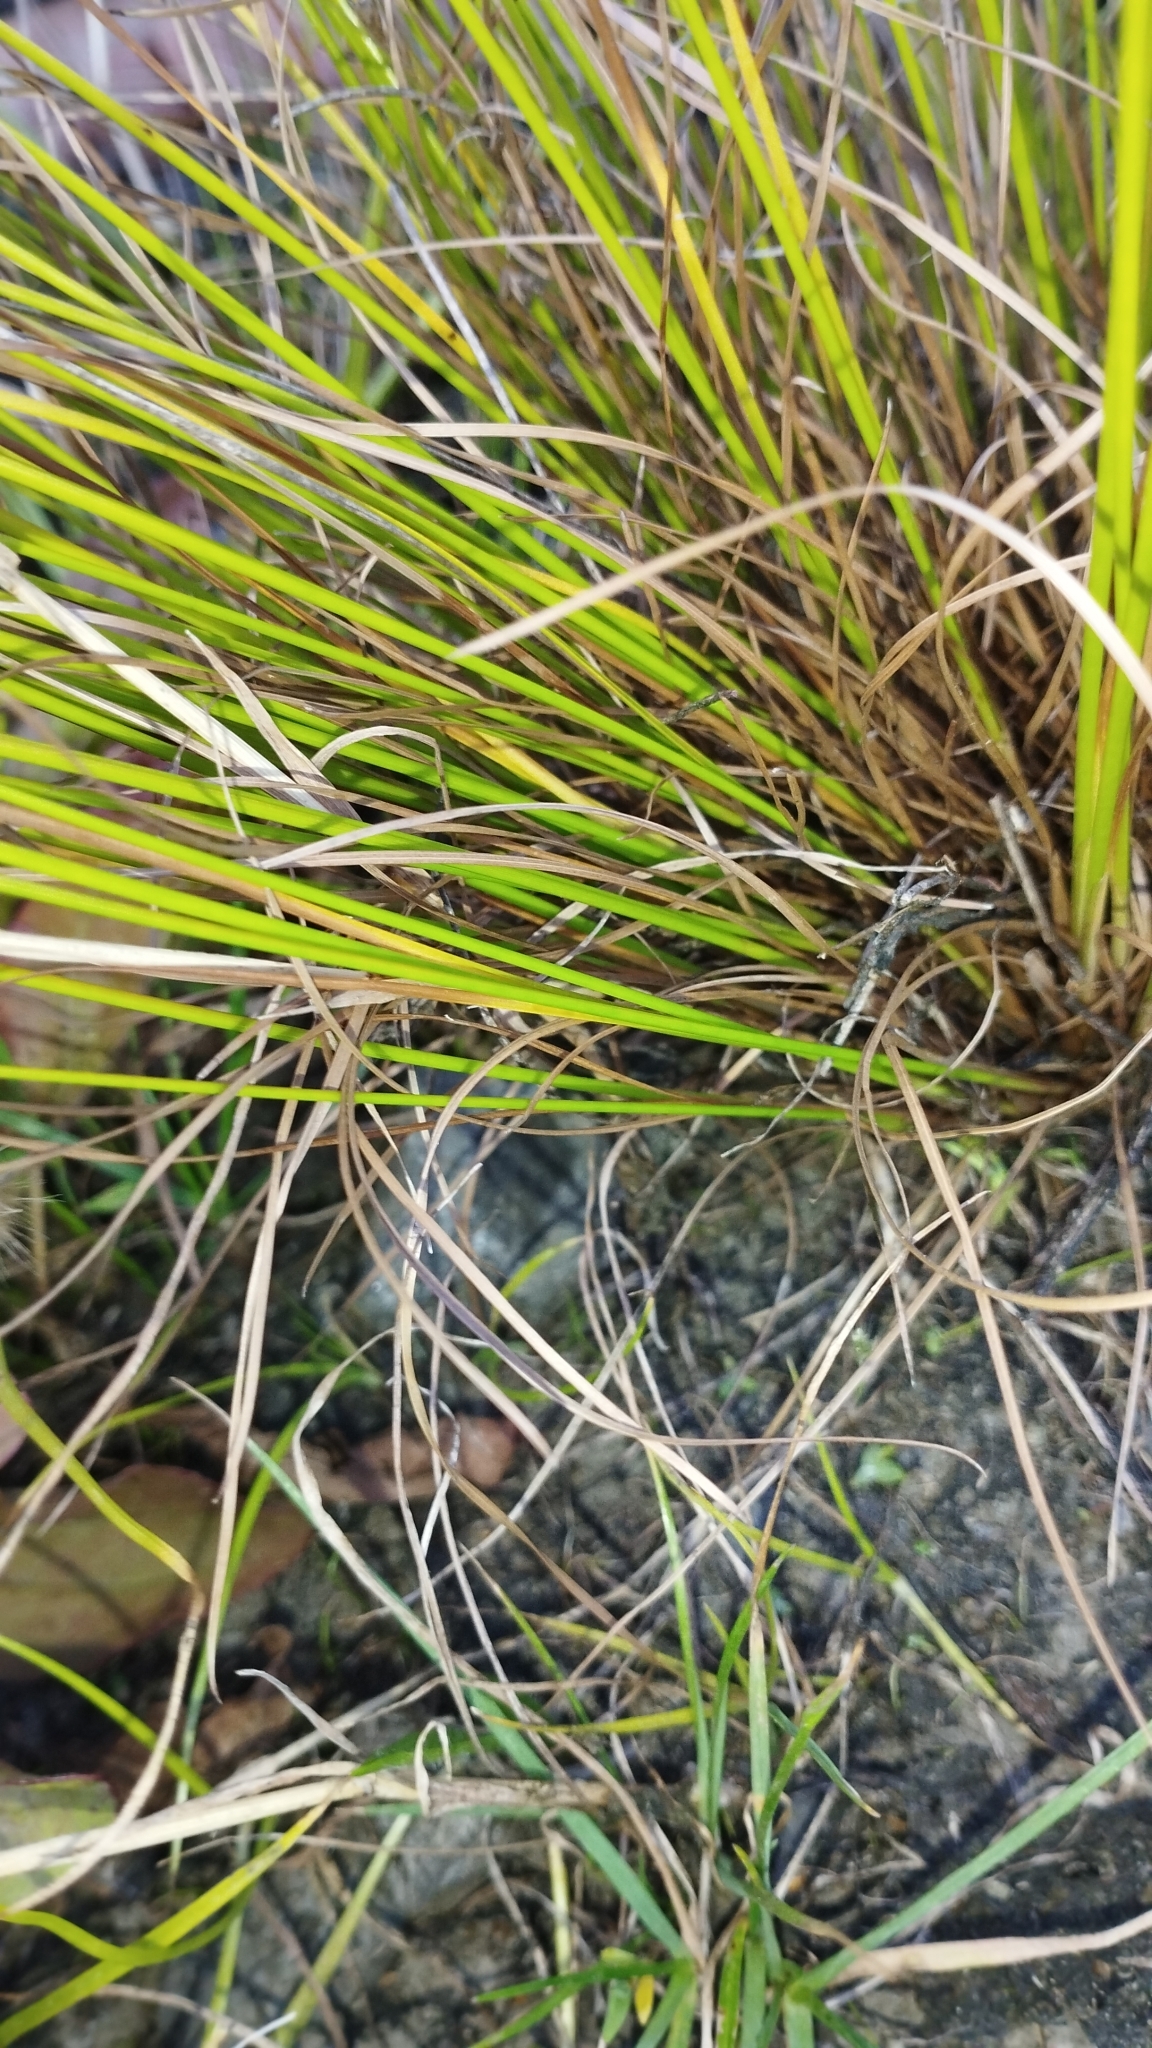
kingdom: Plantae
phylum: Tracheophyta
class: Liliopsida
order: Poales
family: Juncaceae
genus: Juncus
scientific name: Juncus tenuis
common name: Slender rush
